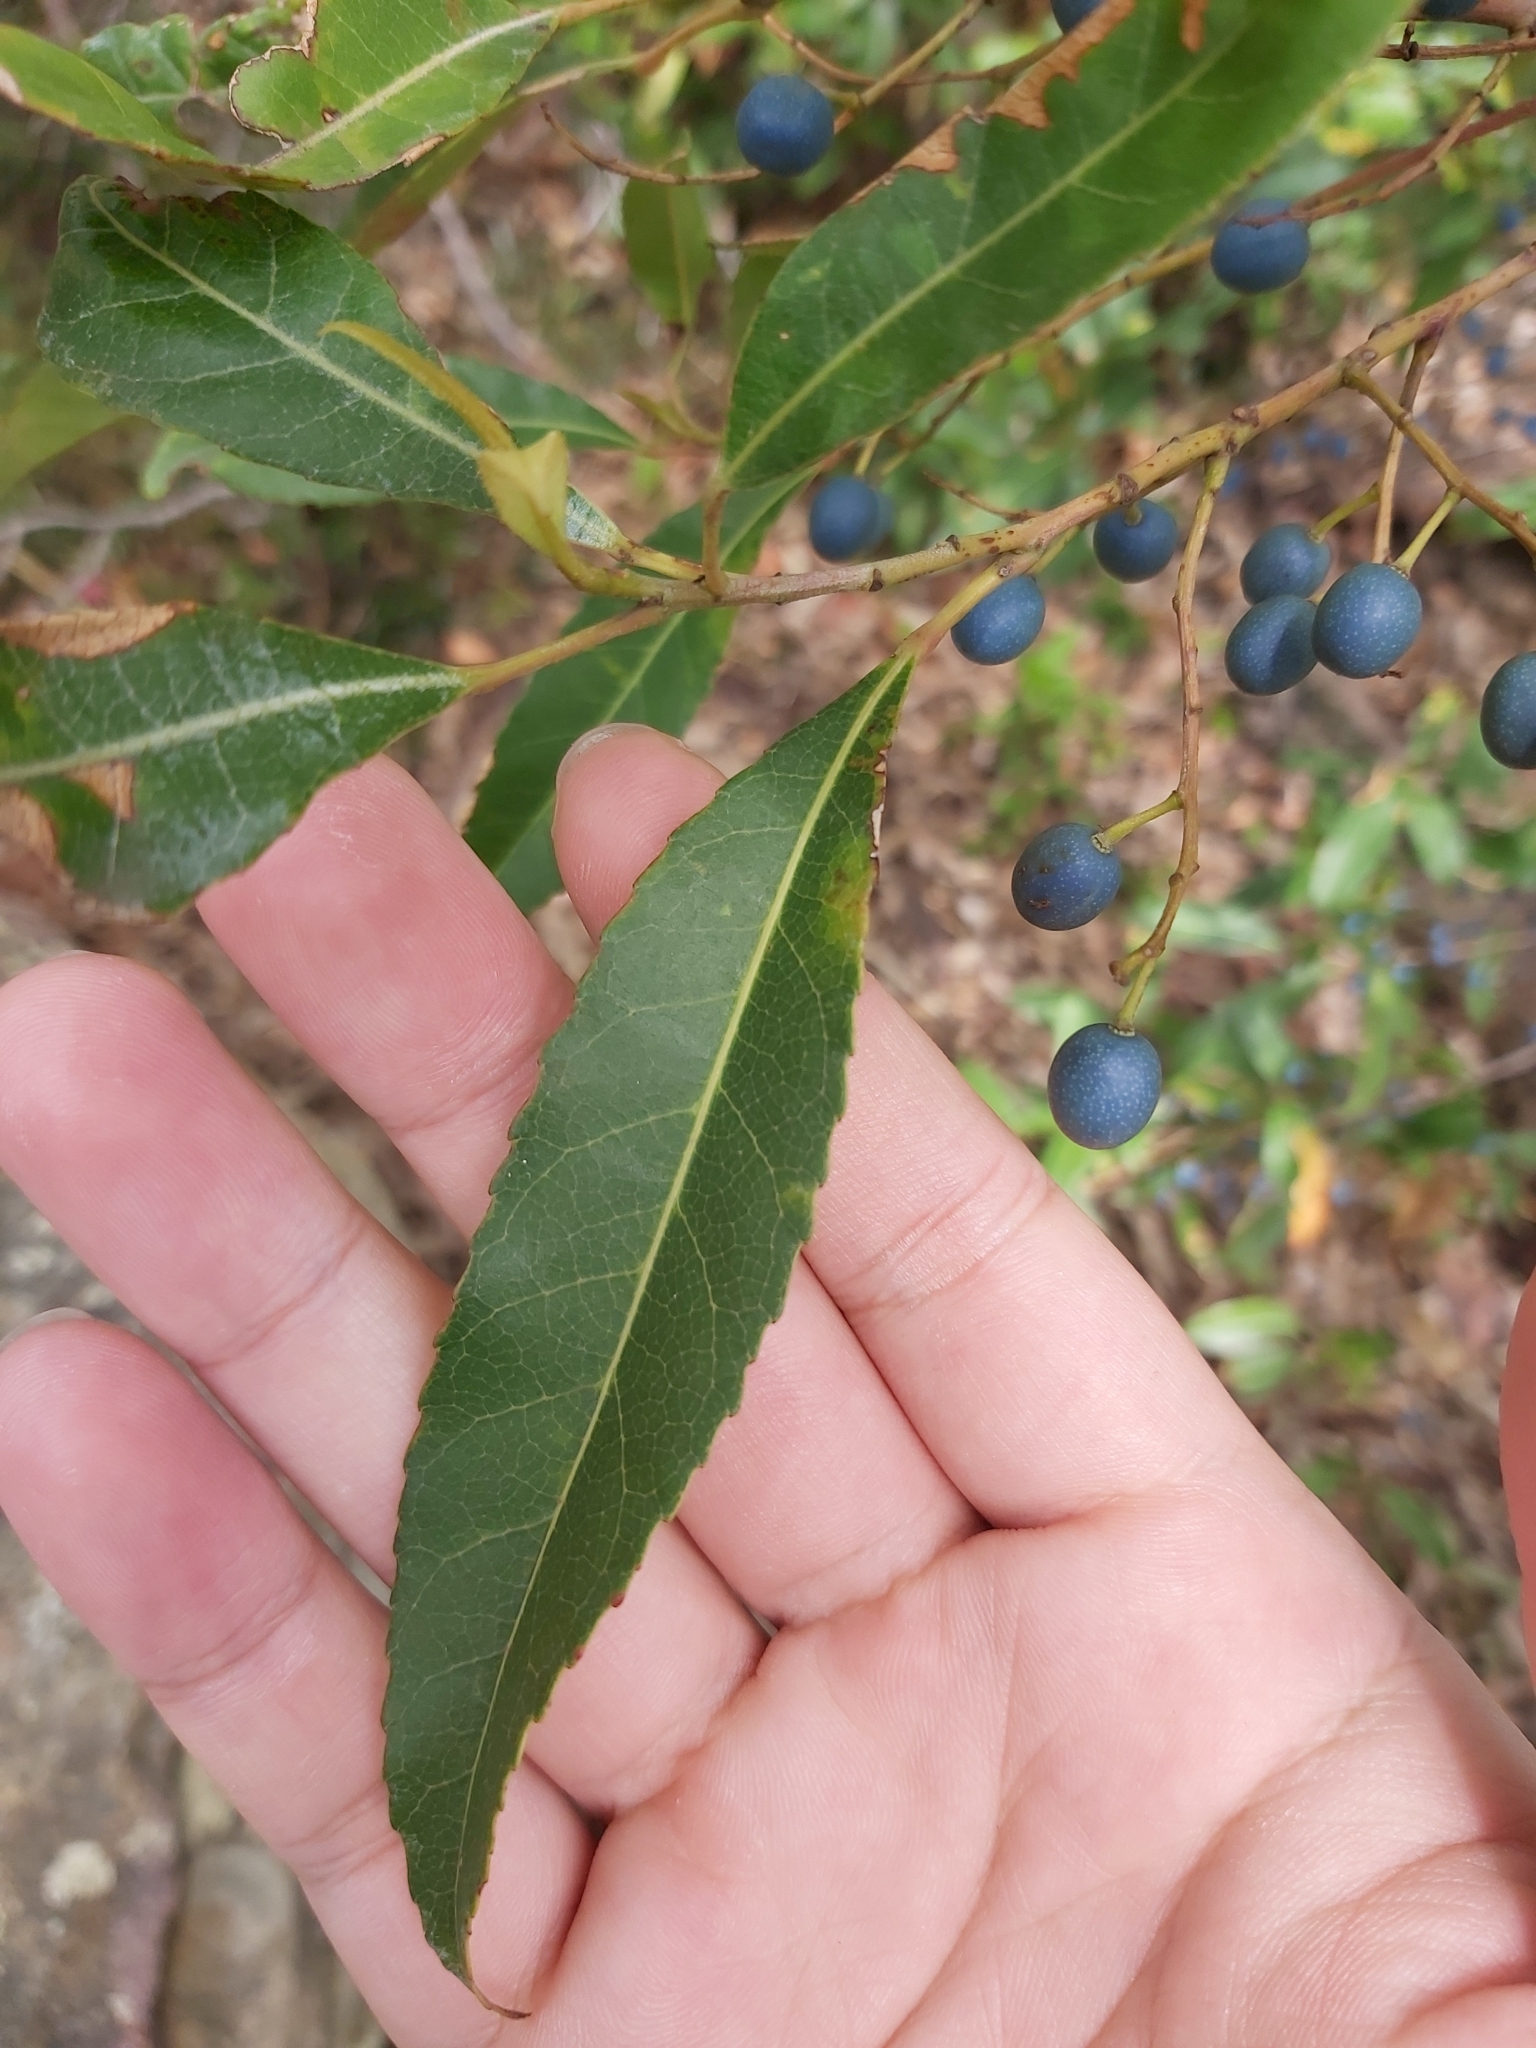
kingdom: Plantae
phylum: Tracheophyta
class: Magnoliopsida
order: Oxalidales
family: Elaeocarpaceae
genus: Elaeocarpus
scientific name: Elaeocarpus reticulatus
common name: Ash quandong
